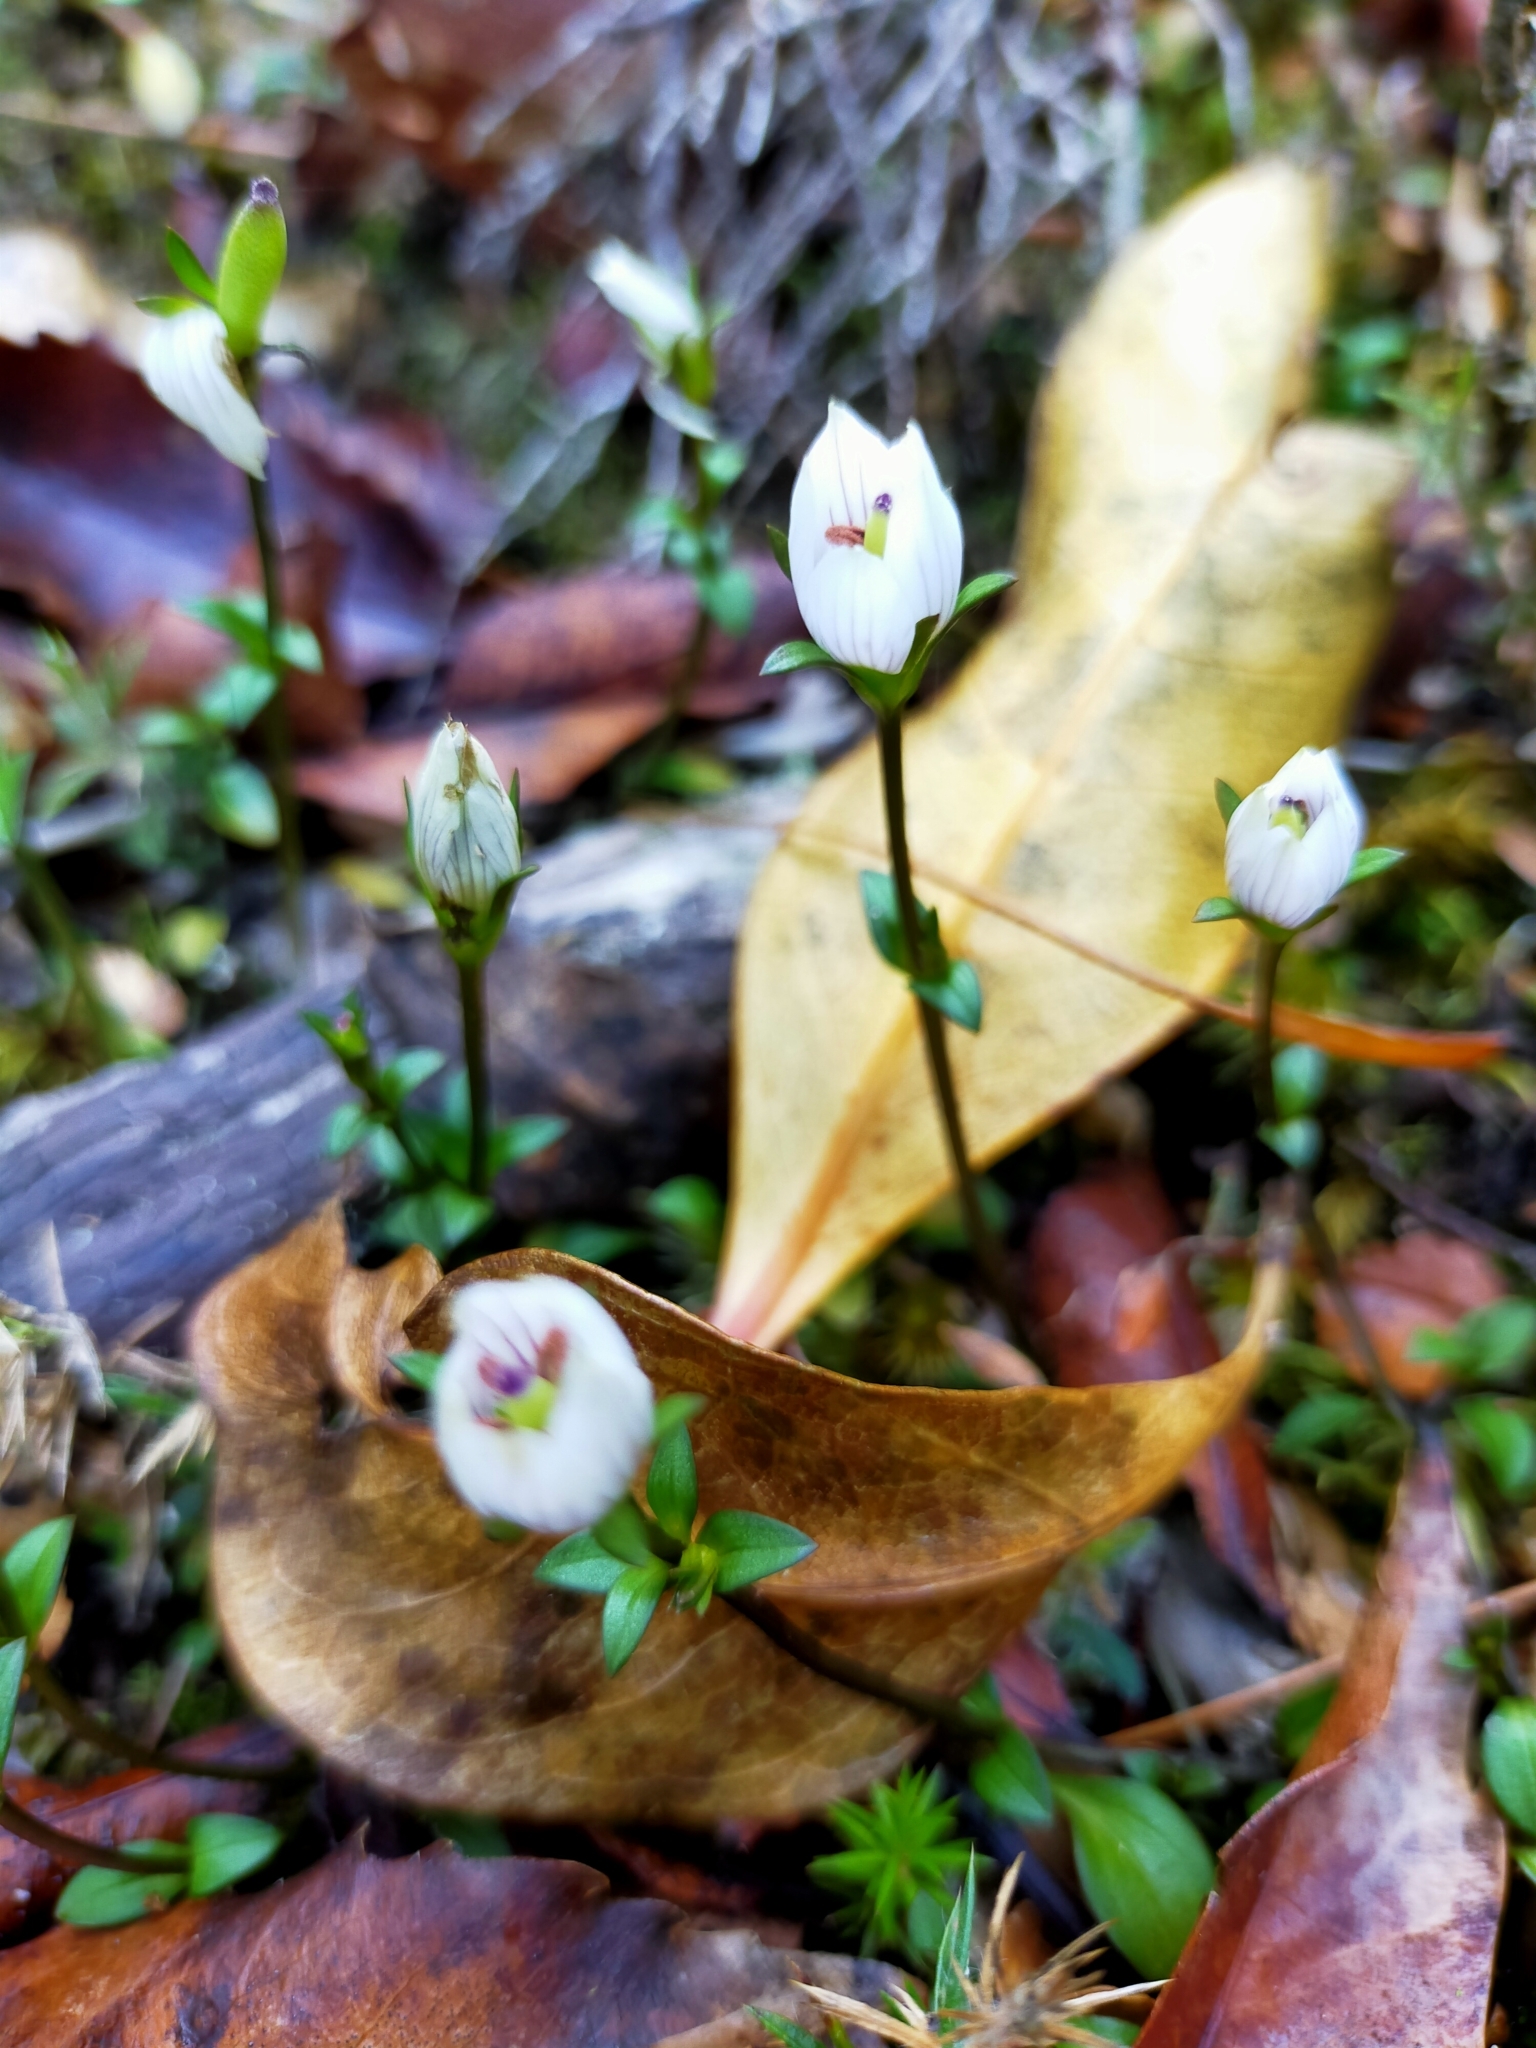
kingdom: Plantae
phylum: Tracheophyta
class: Magnoliopsida
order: Gentianales
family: Gentianaceae
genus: Gentianella
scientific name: Gentianella grisebachii
